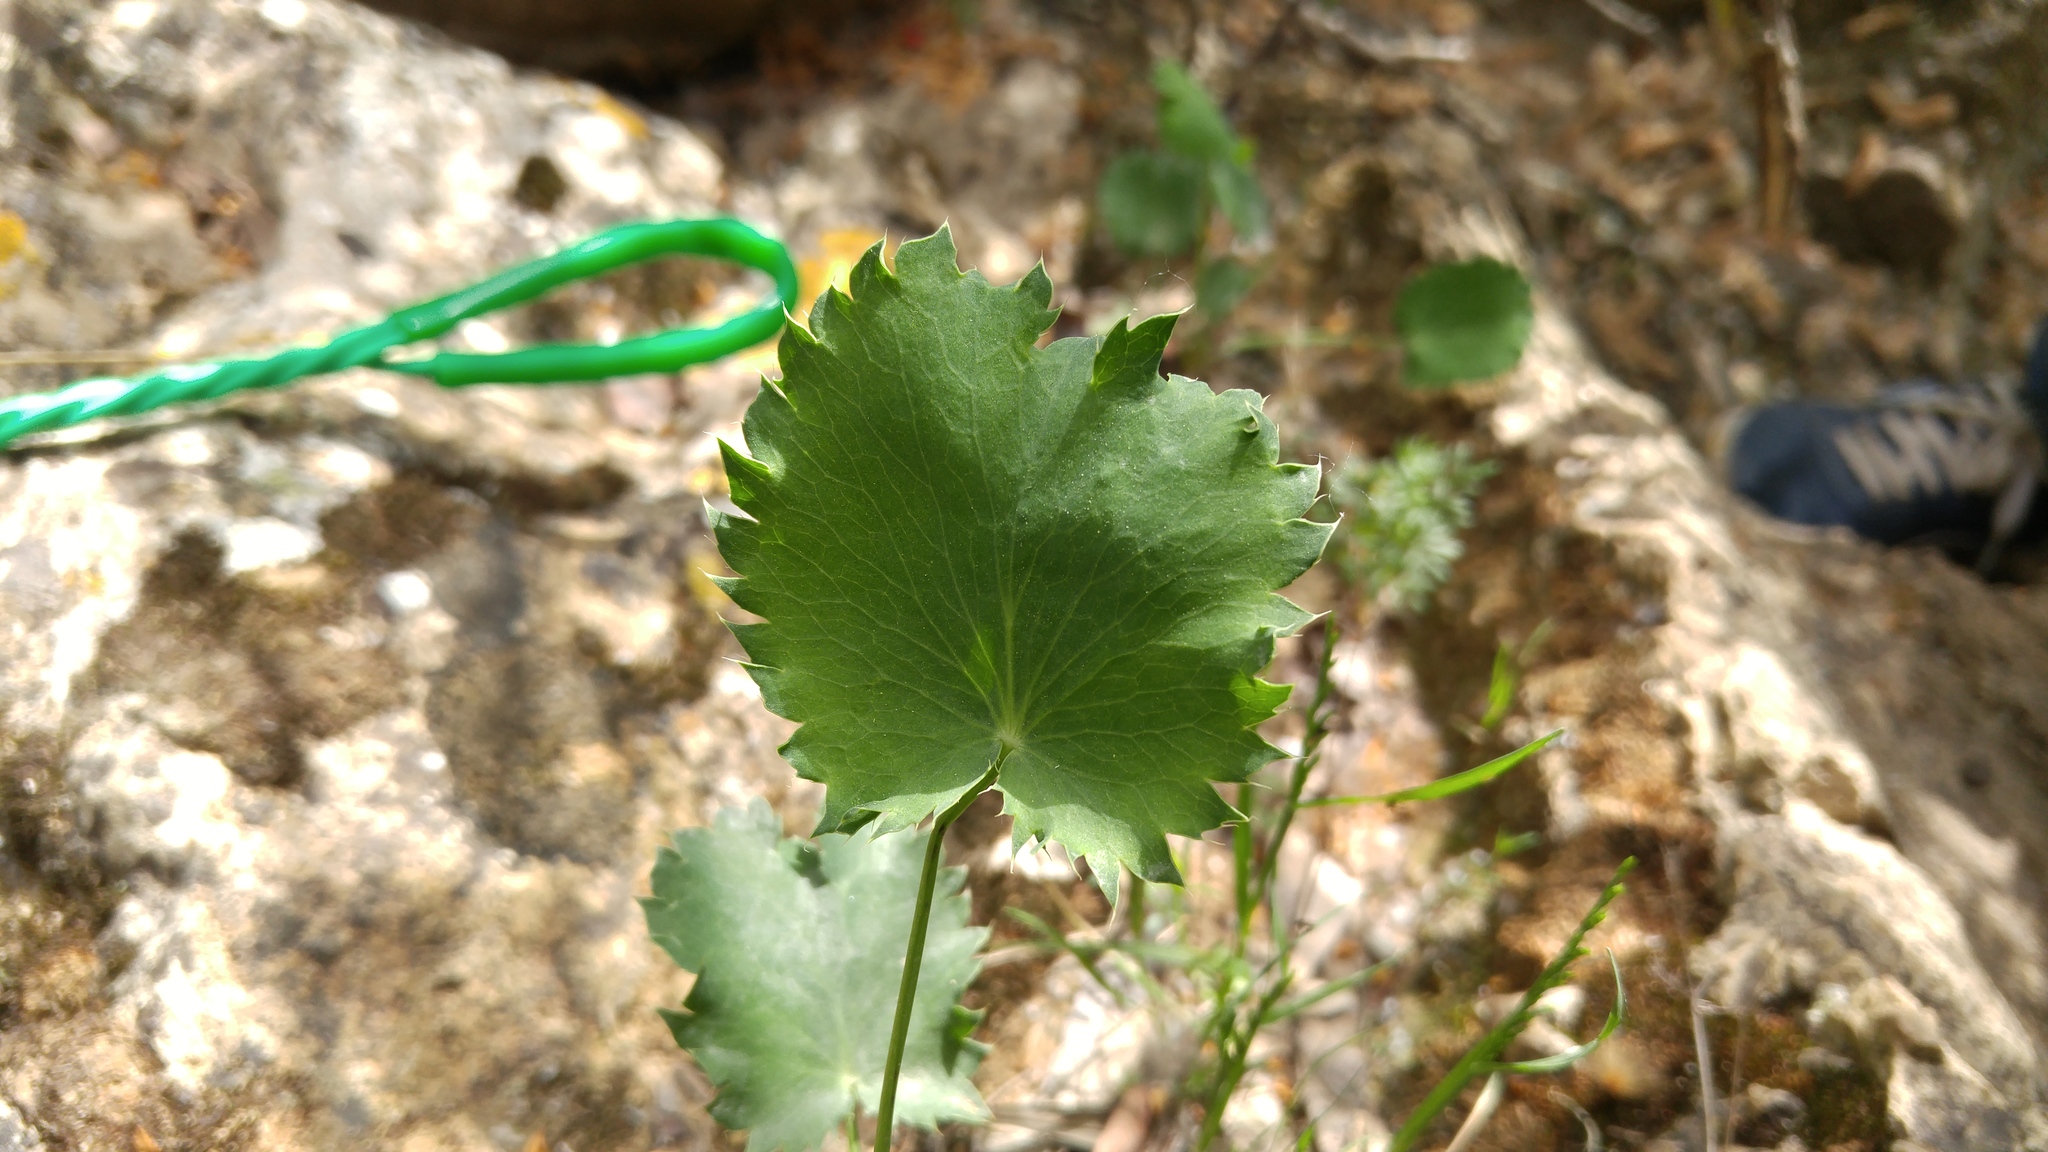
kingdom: Plantae
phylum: Tracheophyta
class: Magnoliopsida
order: Apiales
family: Apiaceae
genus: Eryngium
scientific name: Eryngium tricuspidatum
